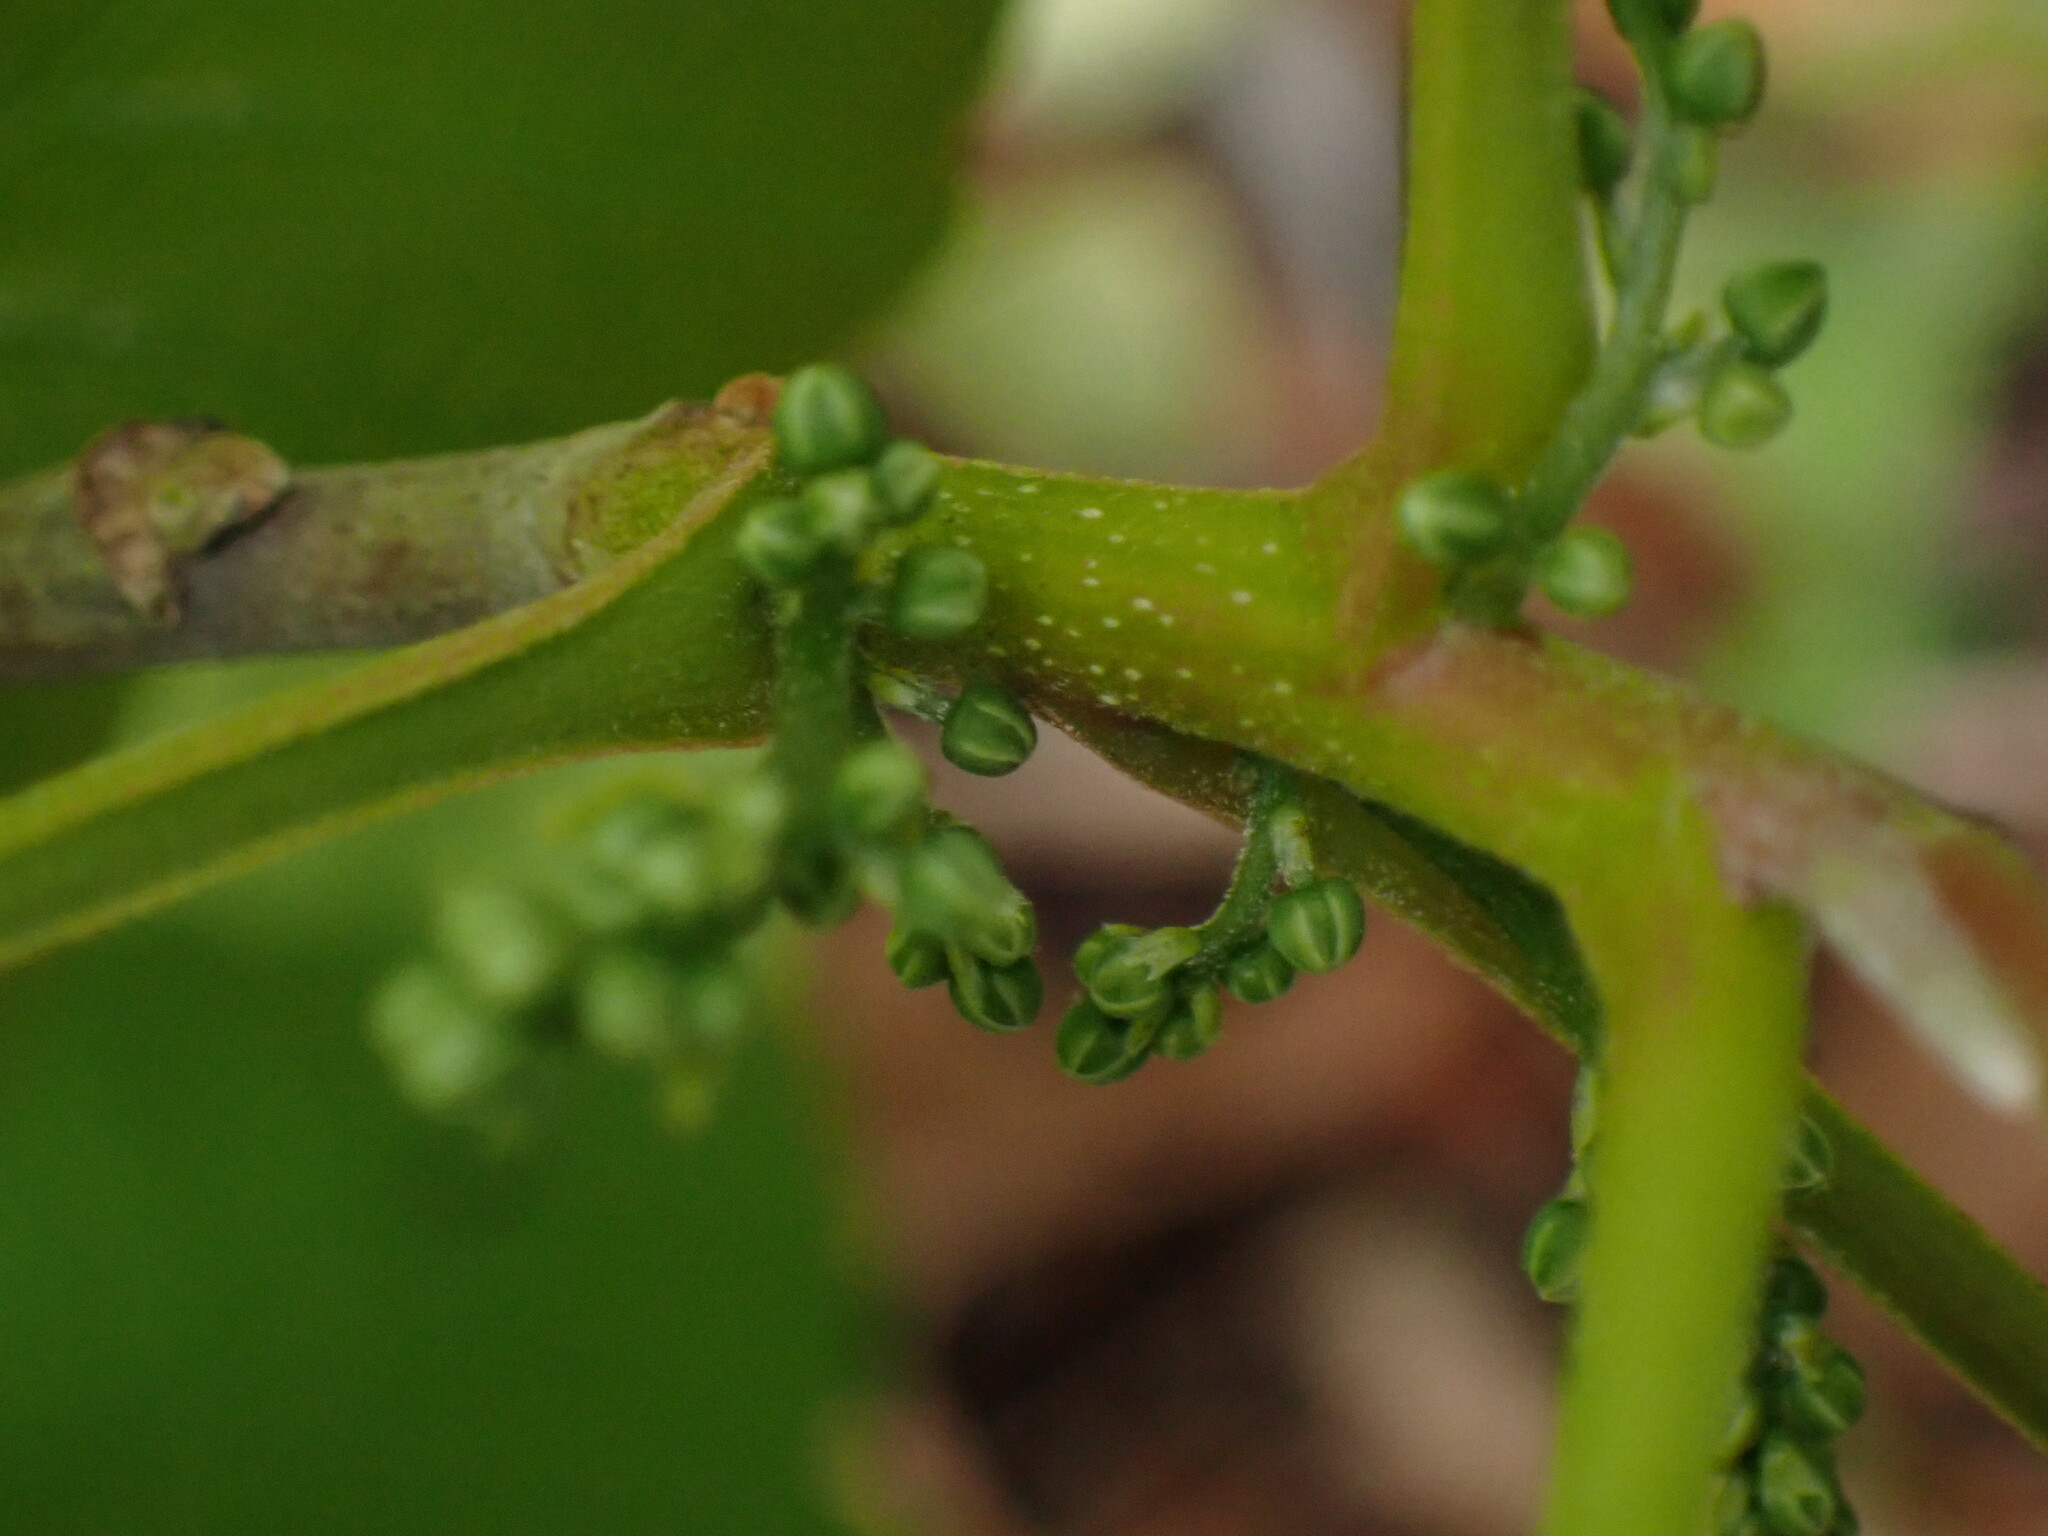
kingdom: Plantae
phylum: Tracheophyta
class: Magnoliopsida
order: Sapindales
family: Anacardiaceae
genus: Toxicodendron
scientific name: Toxicodendron radicans
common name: Poison ivy
